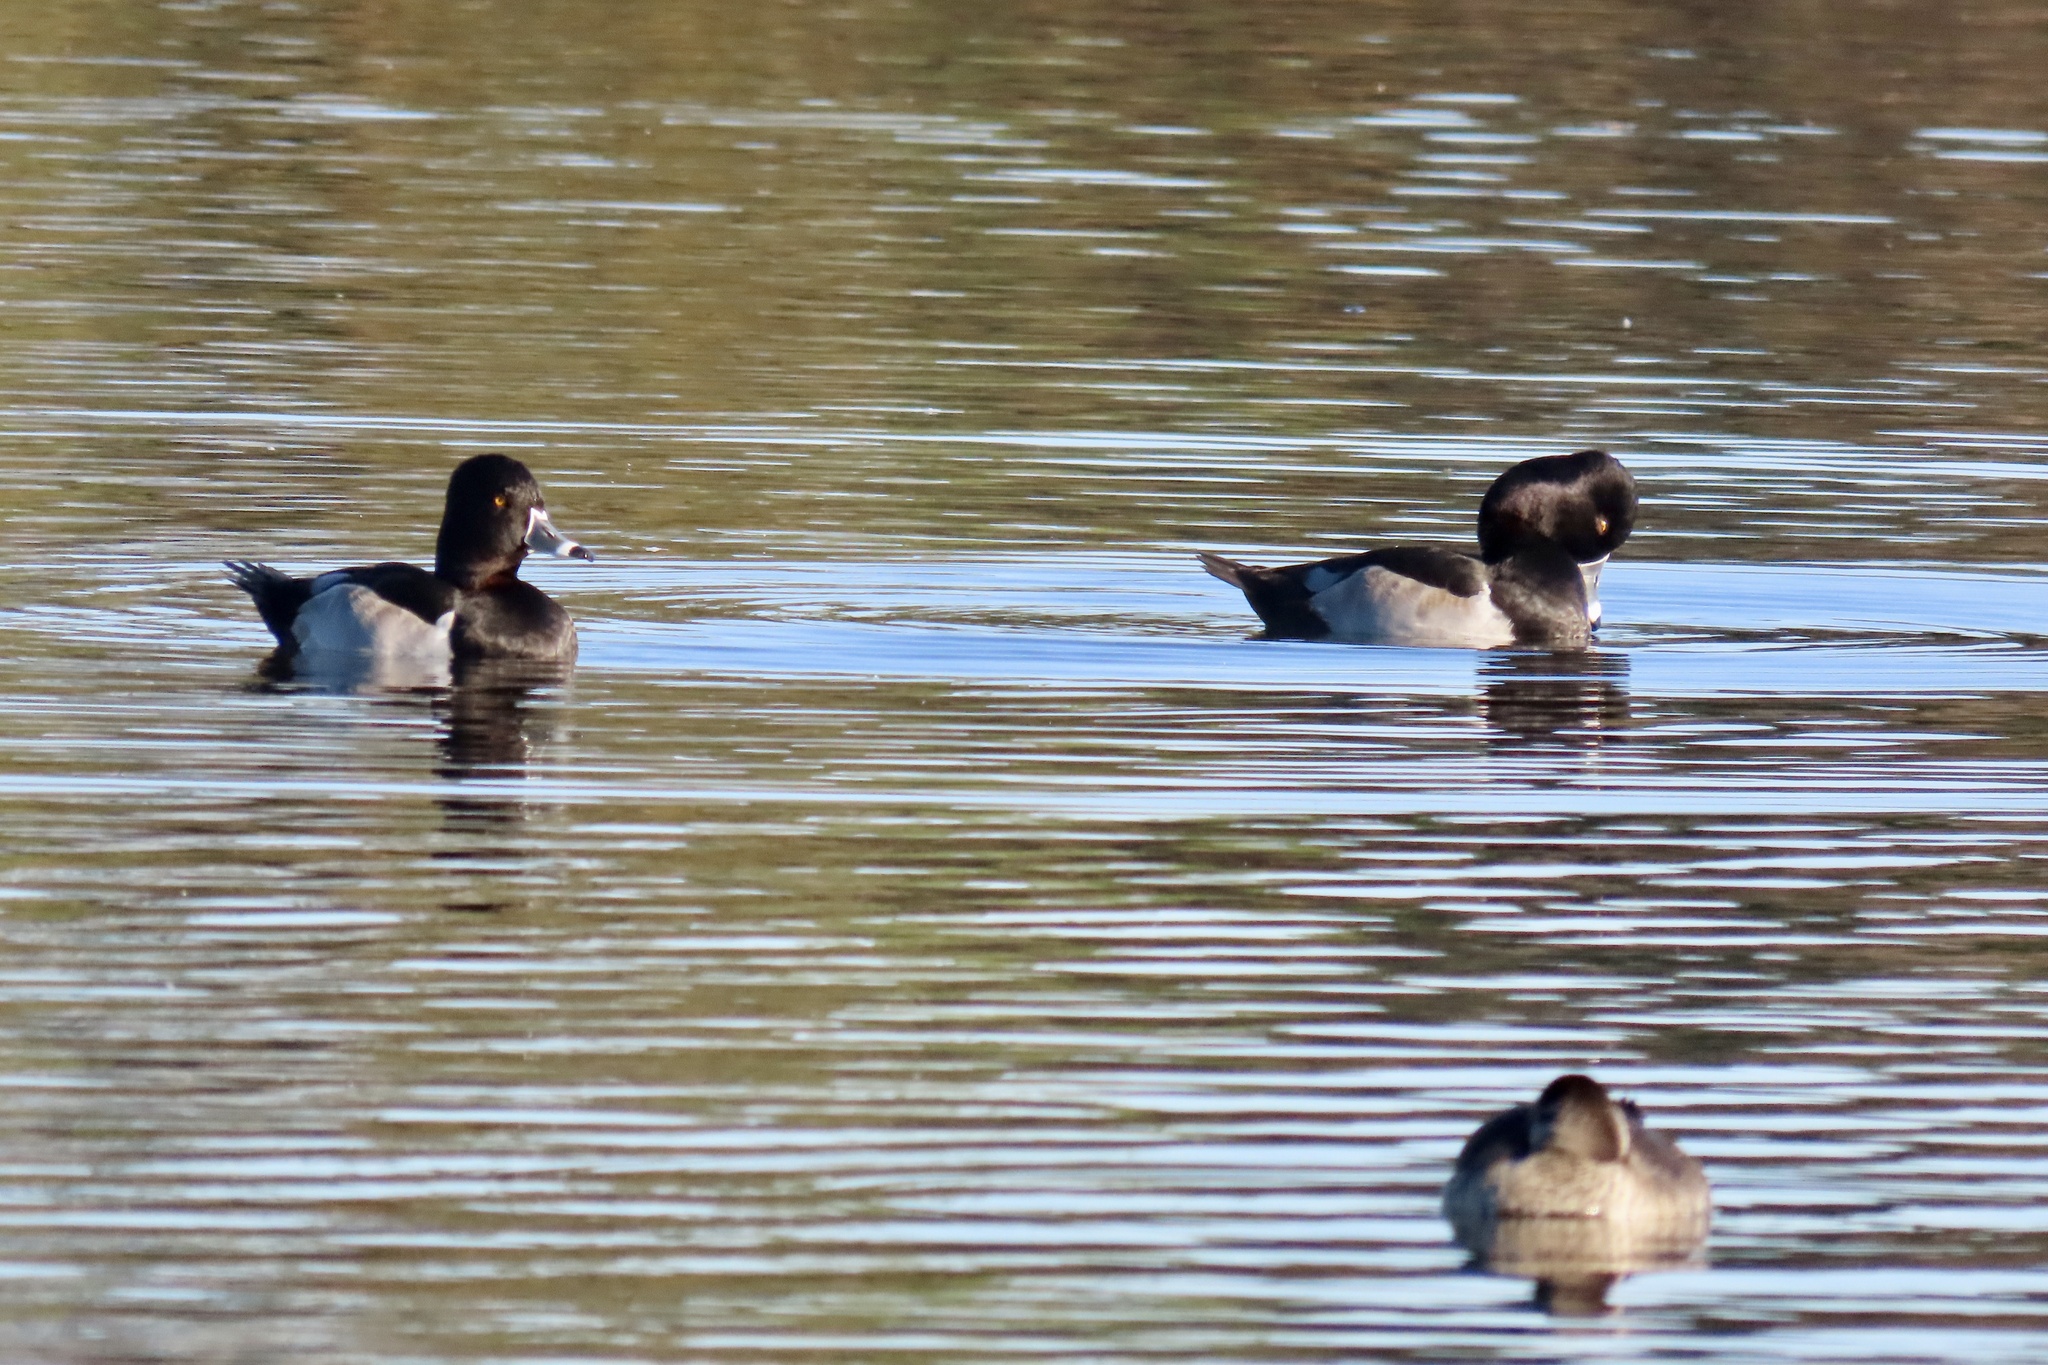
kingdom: Animalia
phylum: Chordata
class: Aves
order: Anseriformes
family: Anatidae
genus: Aythya
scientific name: Aythya collaris
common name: Ring-necked duck
